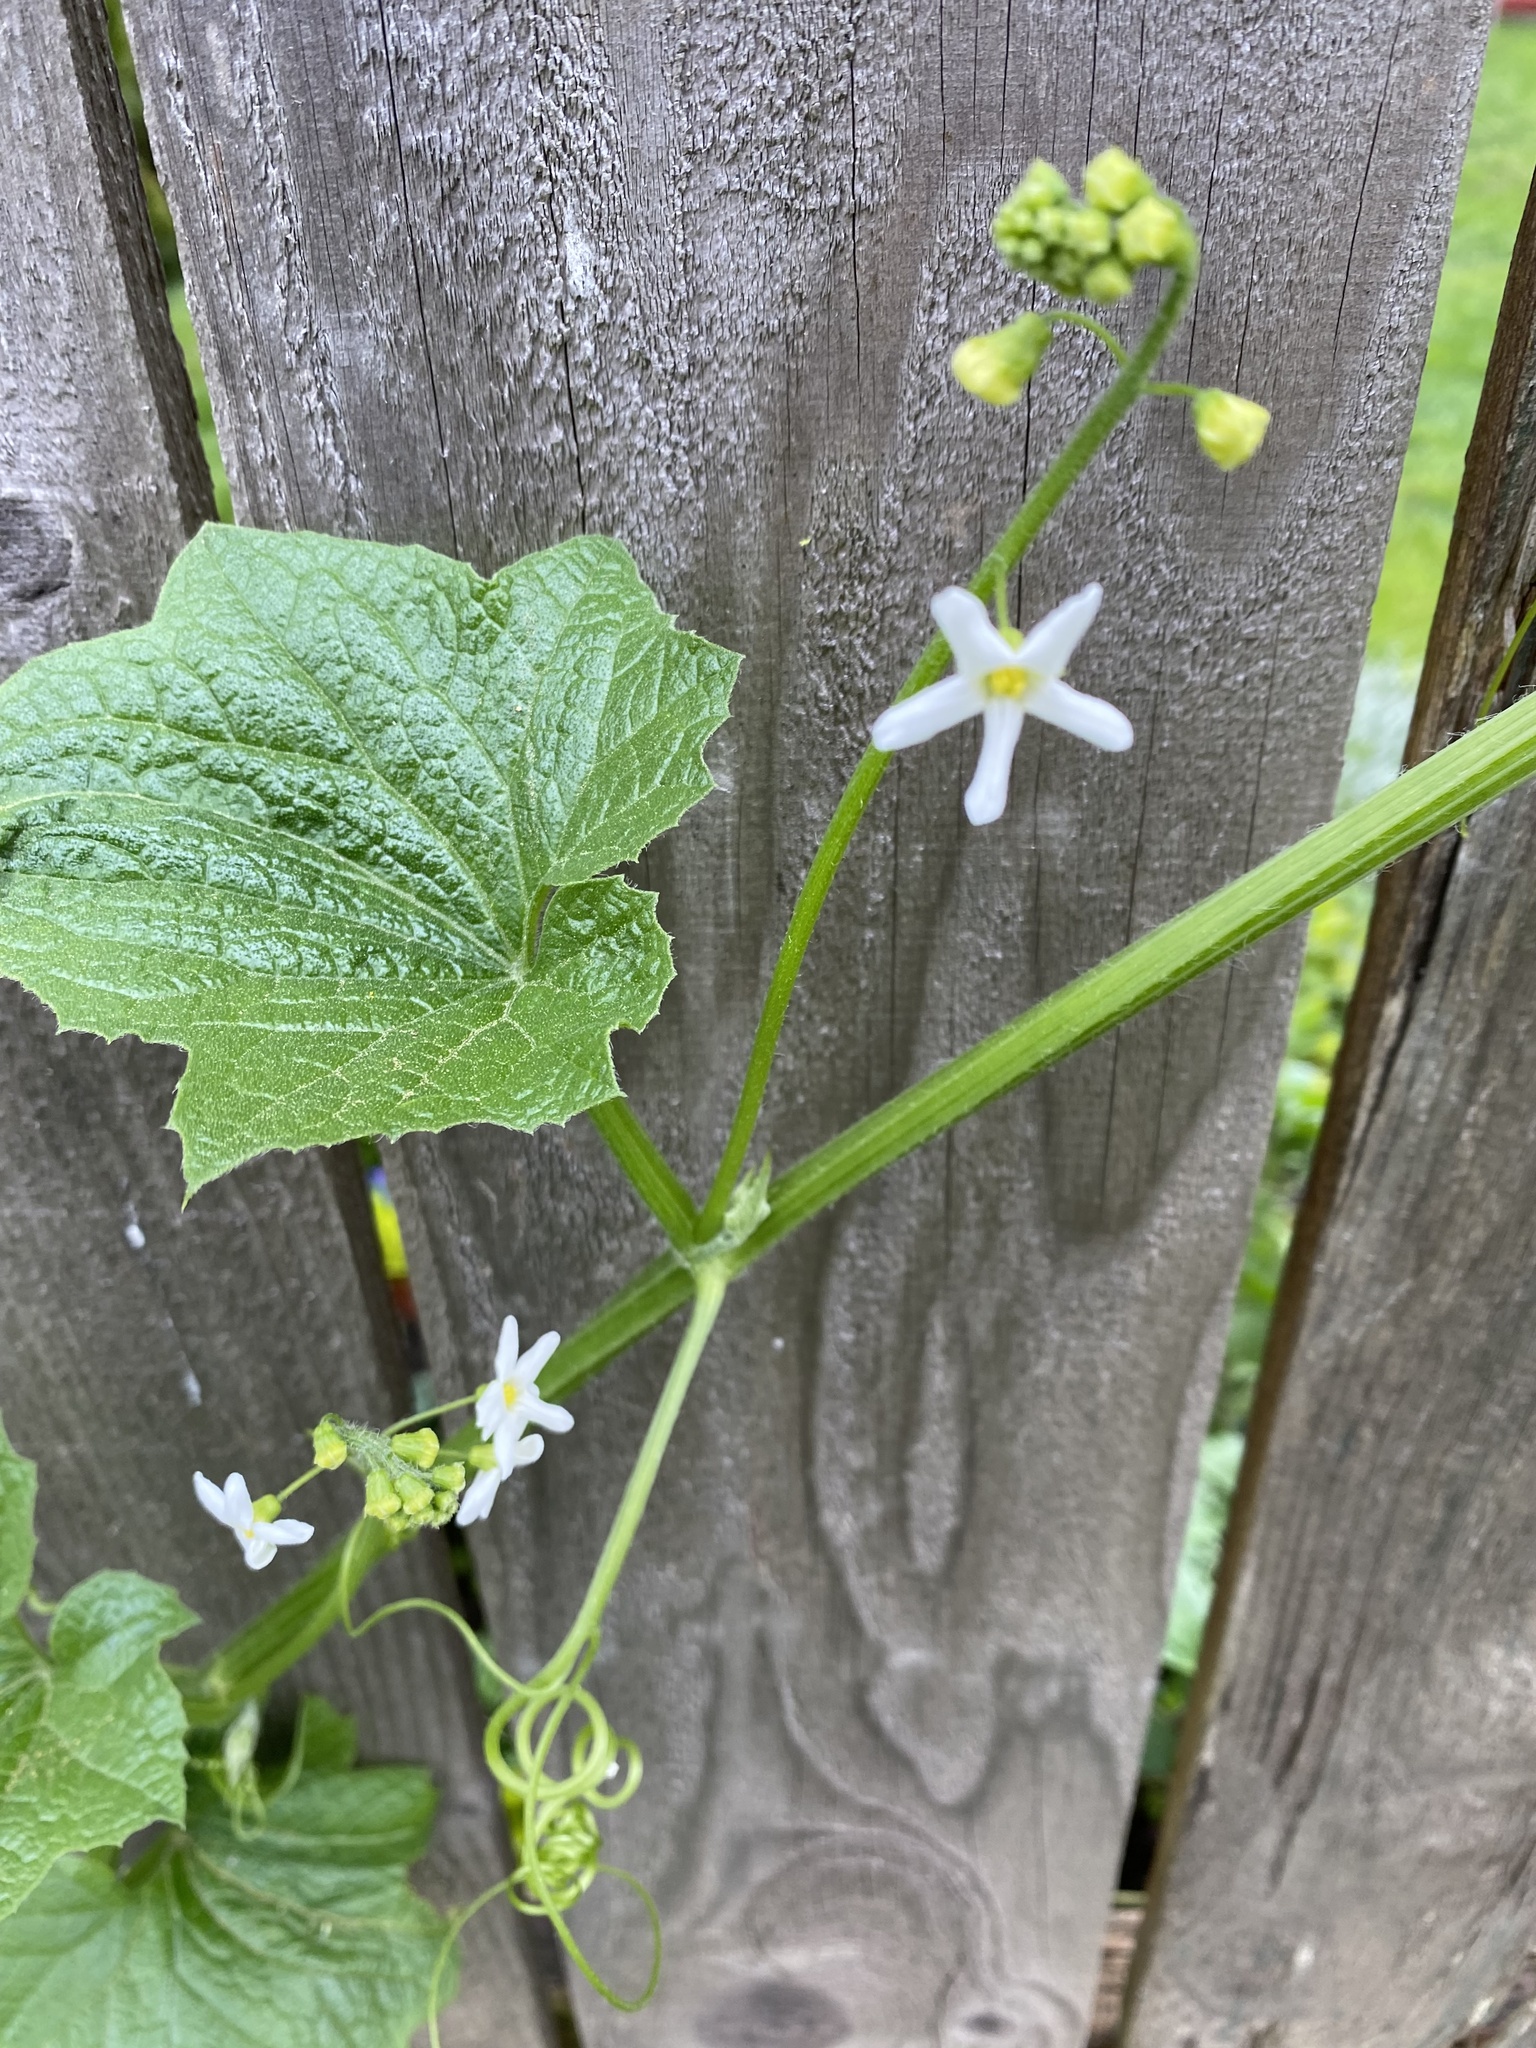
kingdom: Plantae
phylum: Tracheophyta
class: Magnoliopsida
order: Cucurbitales
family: Cucurbitaceae
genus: Marah
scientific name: Marah oregana
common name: Coastal manroot
